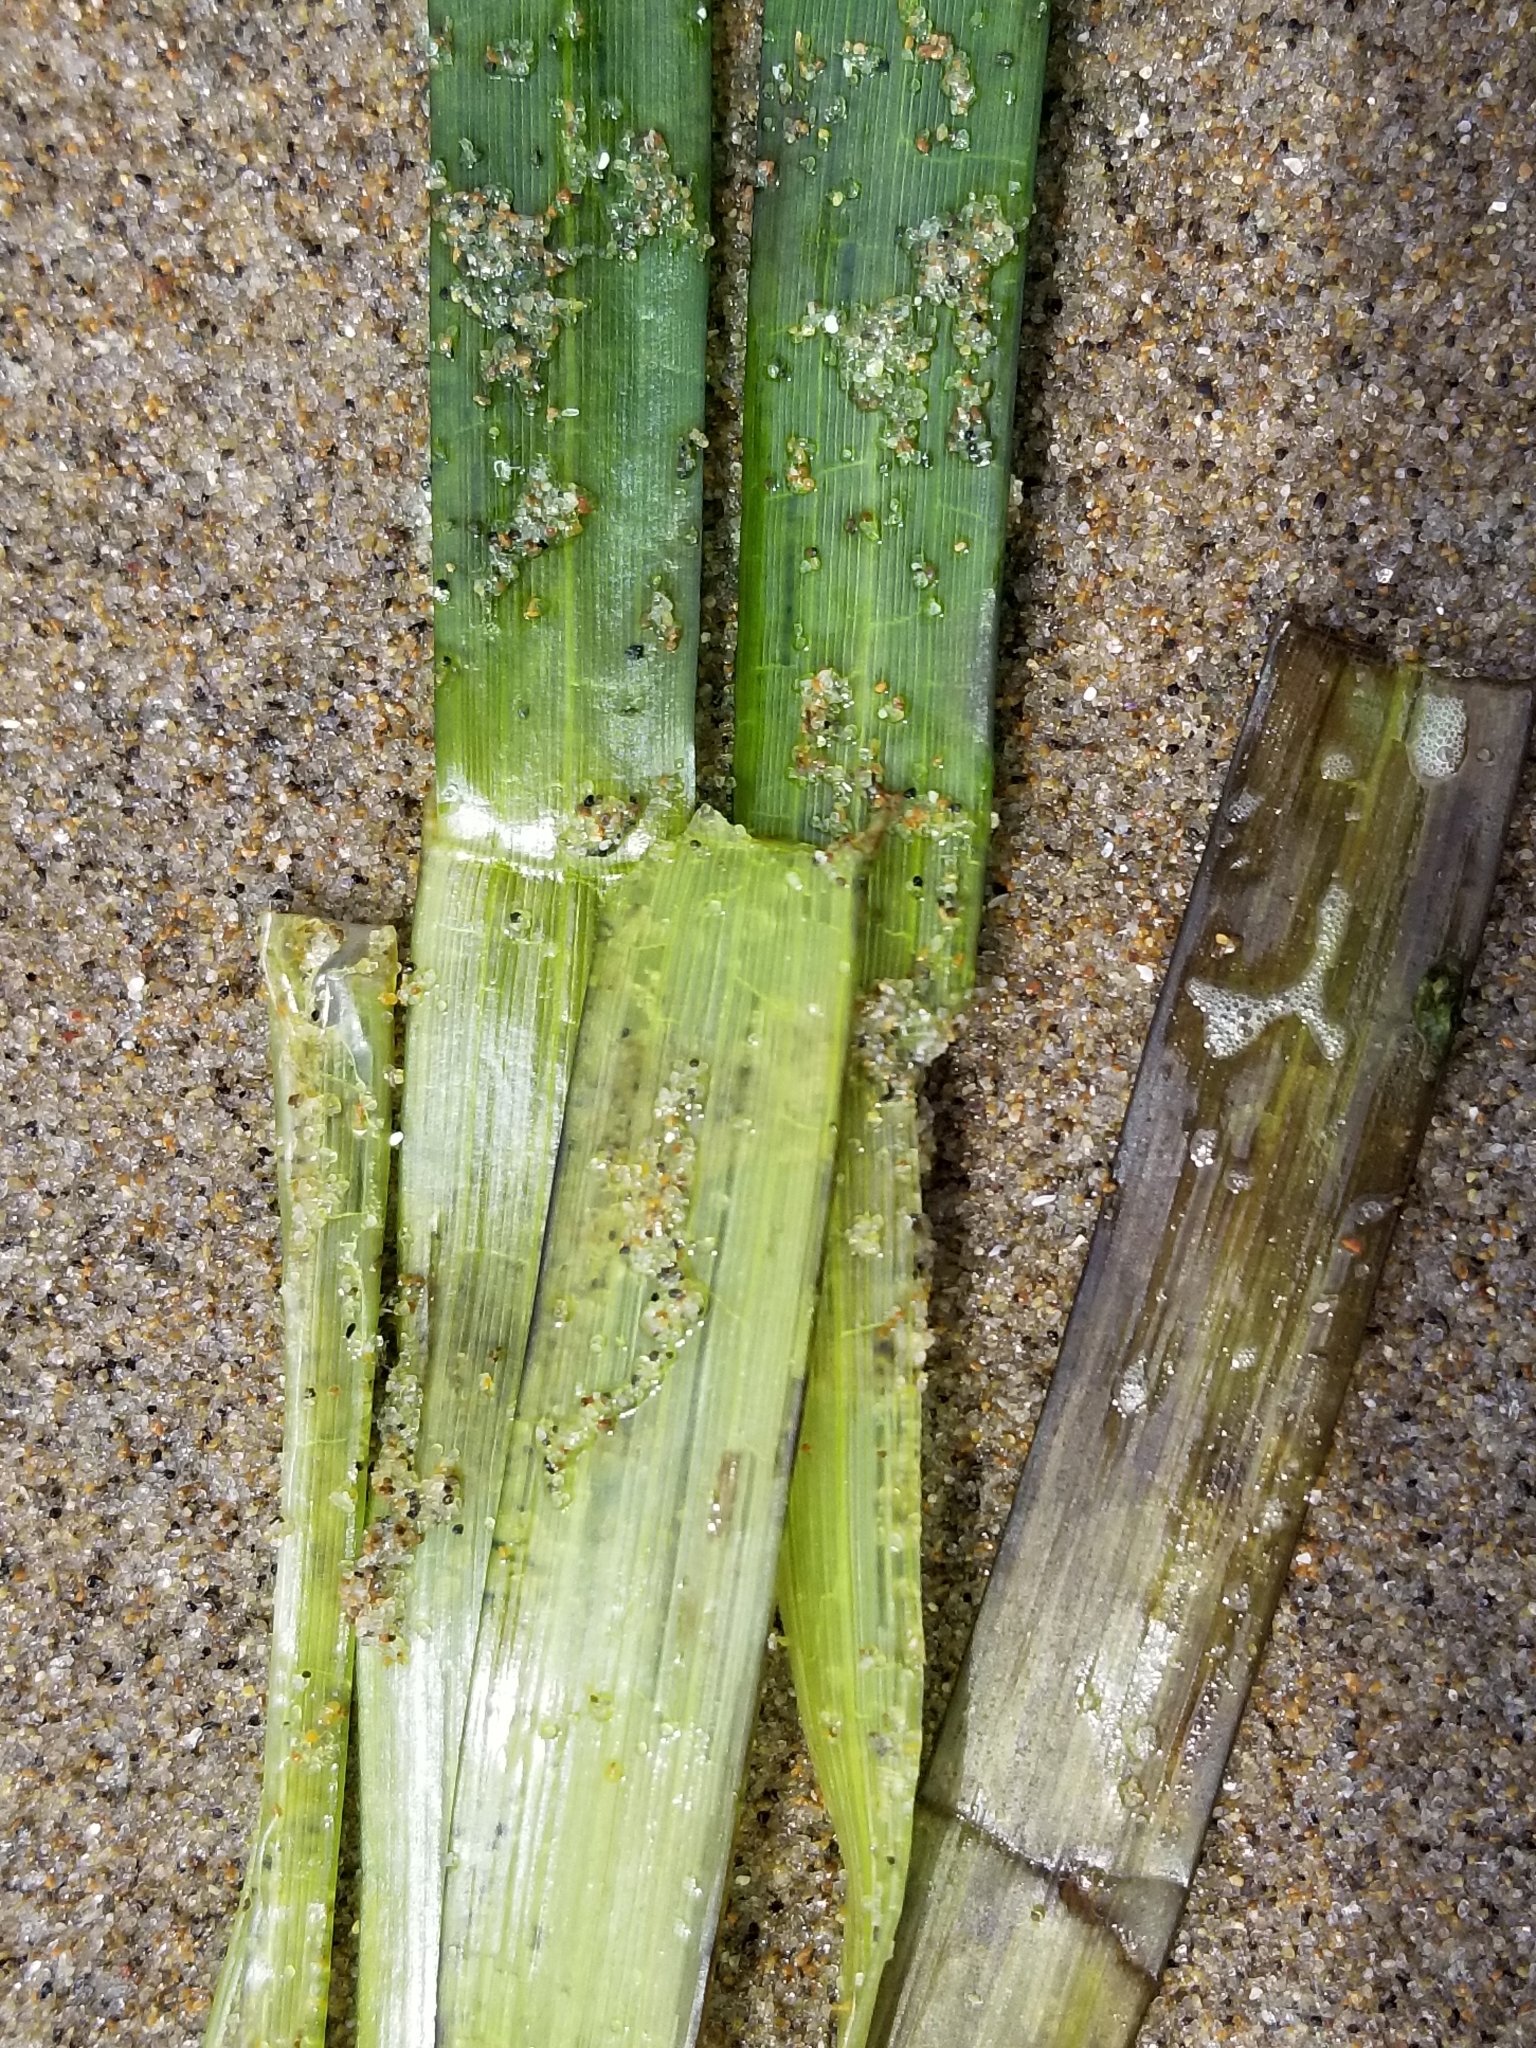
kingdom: Plantae
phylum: Tracheophyta
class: Liliopsida
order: Alismatales
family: Zosteraceae
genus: Zostera
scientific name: Zostera marina
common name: Eelgrass
